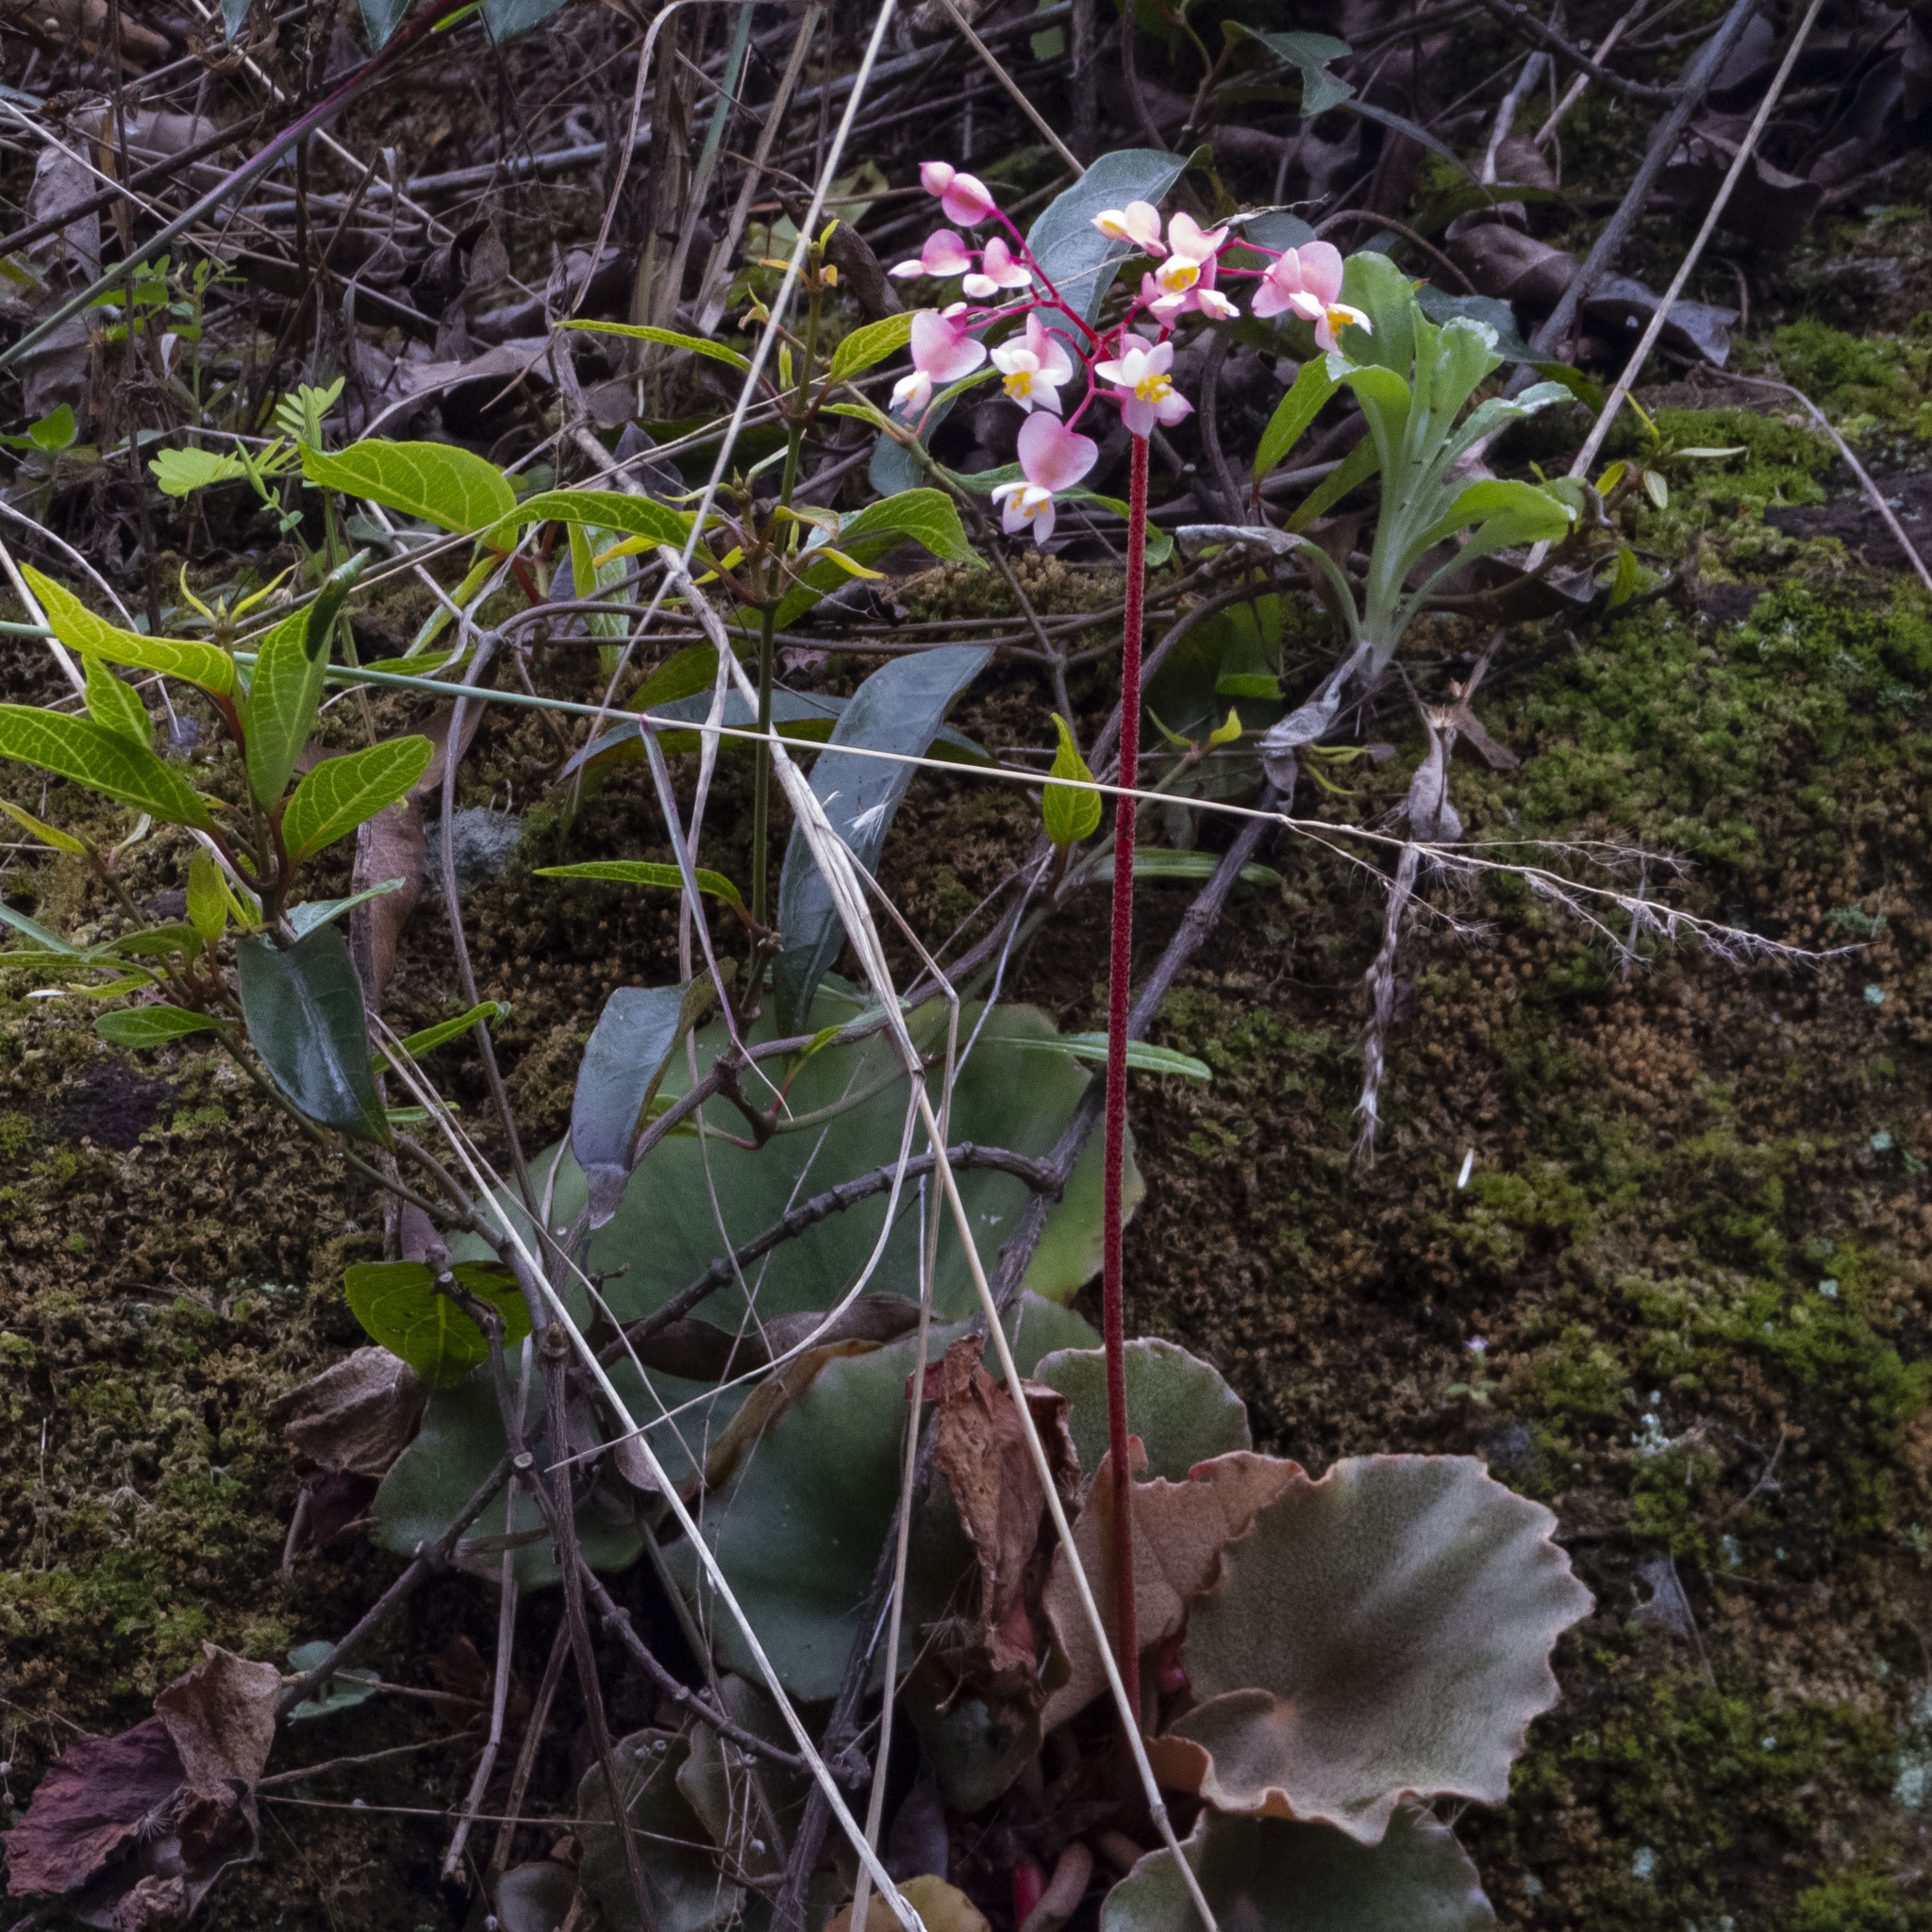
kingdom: Plantae
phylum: Tracheophyta
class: Magnoliopsida
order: Cucurbitales
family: Begoniaceae
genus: Begonia
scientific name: Begonia floccifera
